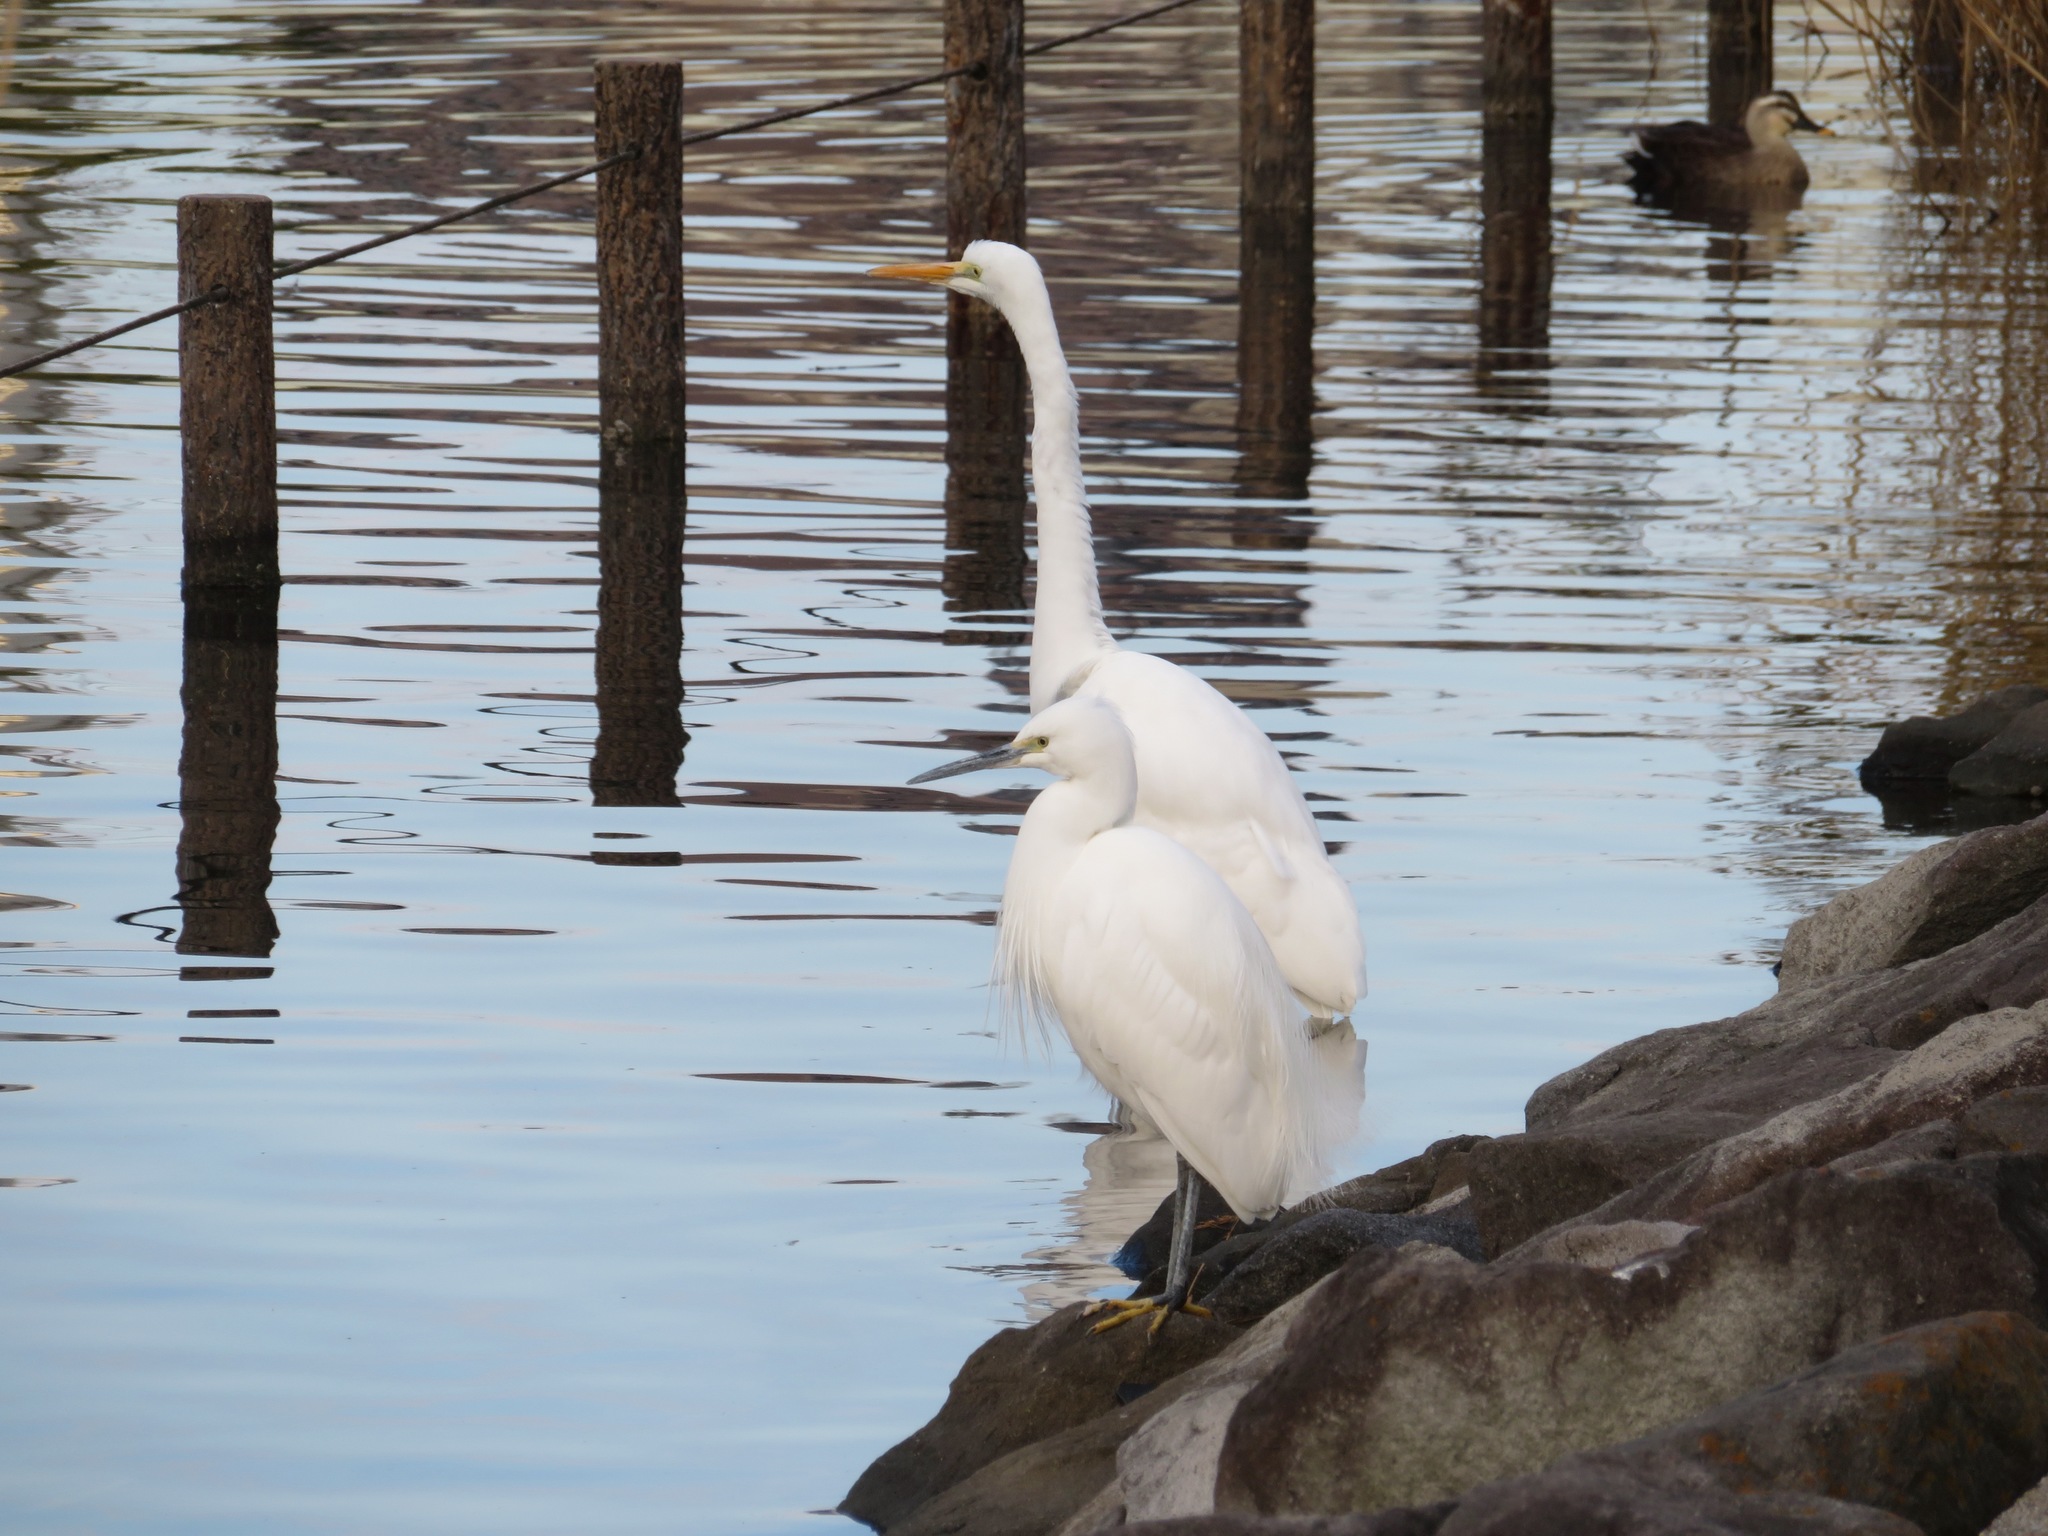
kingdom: Animalia
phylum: Chordata
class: Aves
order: Pelecaniformes
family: Ardeidae
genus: Egretta
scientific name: Egretta garzetta
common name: Little egret
